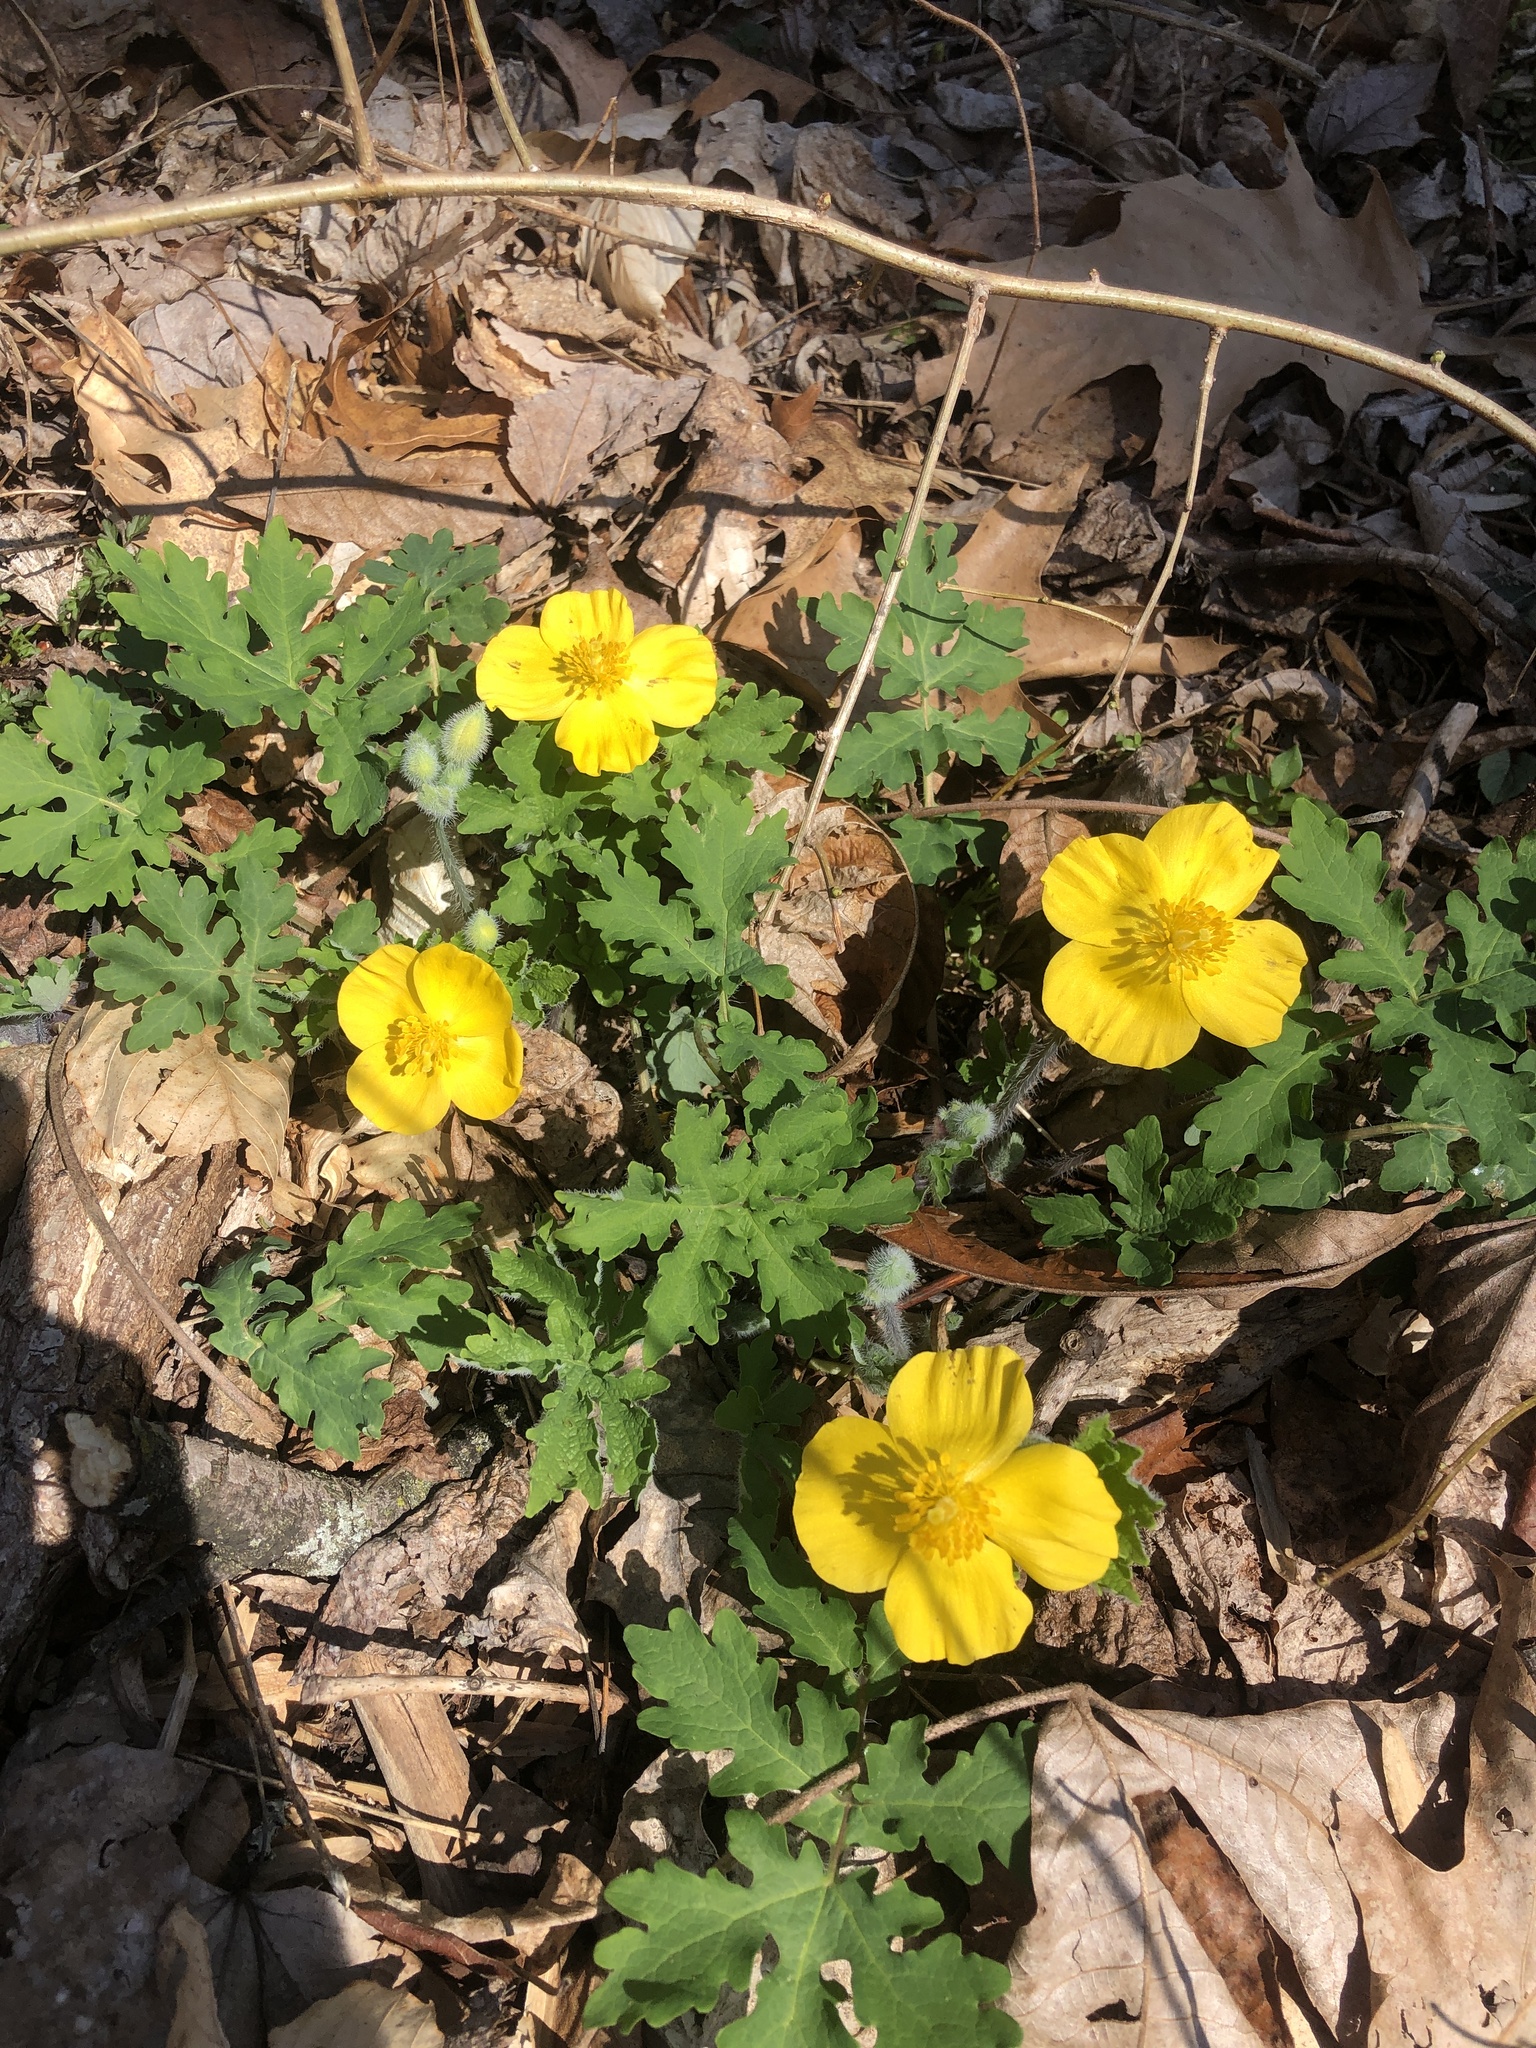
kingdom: Plantae
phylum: Tracheophyta
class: Magnoliopsida
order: Ranunculales
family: Papaveraceae
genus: Stylophorum
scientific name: Stylophorum diphyllum
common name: Celandine poppy
